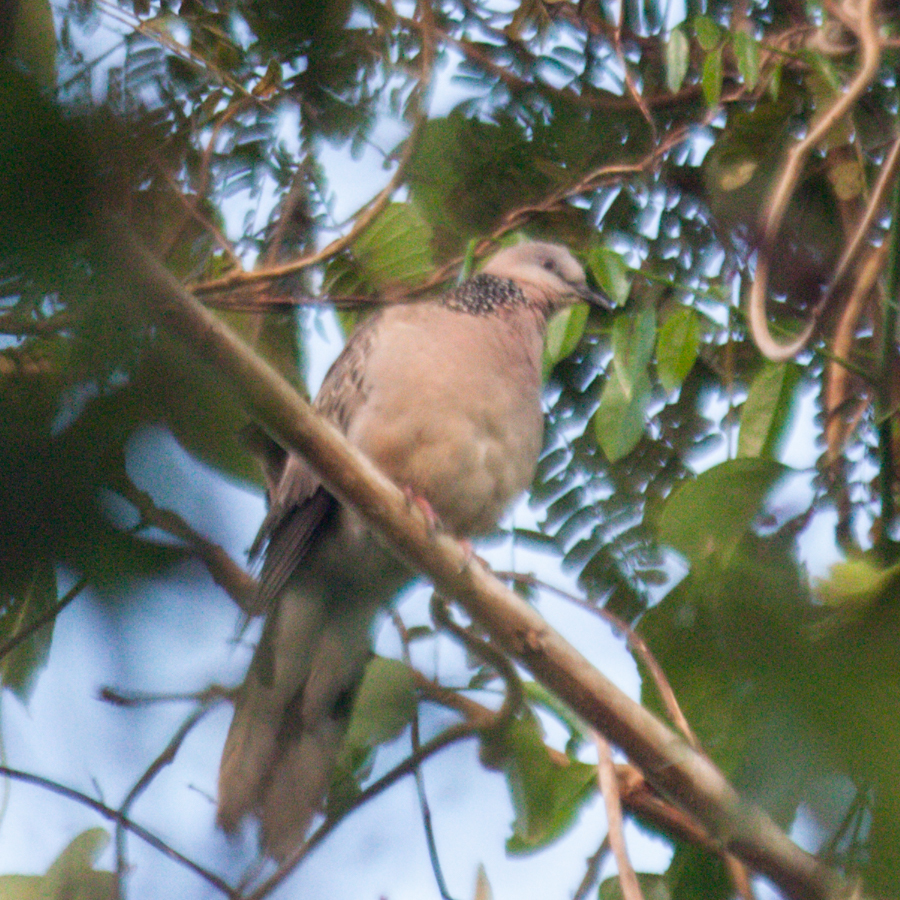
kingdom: Animalia
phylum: Chordata
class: Aves
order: Columbiformes
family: Columbidae
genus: Spilopelia
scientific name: Spilopelia chinensis
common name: Spotted dove
